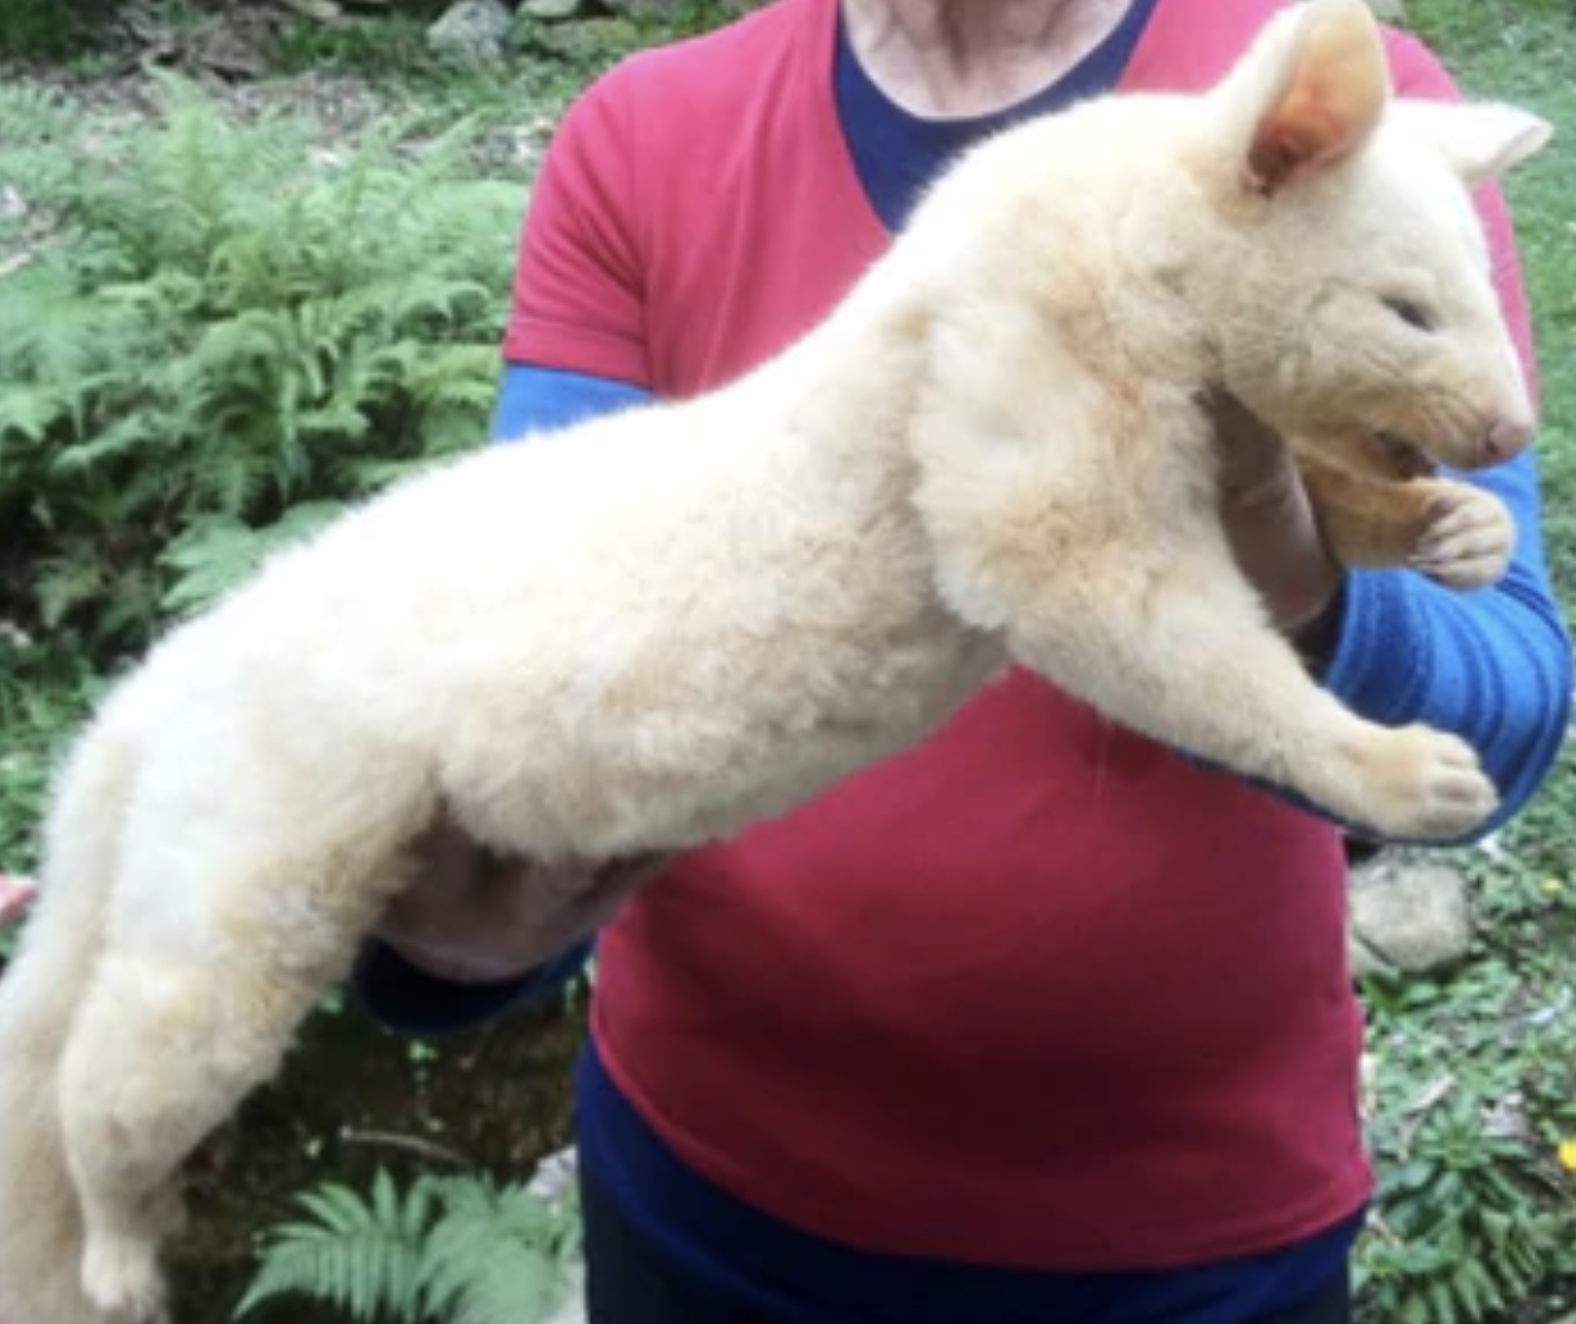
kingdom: Animalia
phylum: Chordata
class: Mammalia
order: Diprotodontia
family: Phalangeridae
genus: Trichosurus
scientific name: Trichosurus vulpecula
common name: Common brushtail
